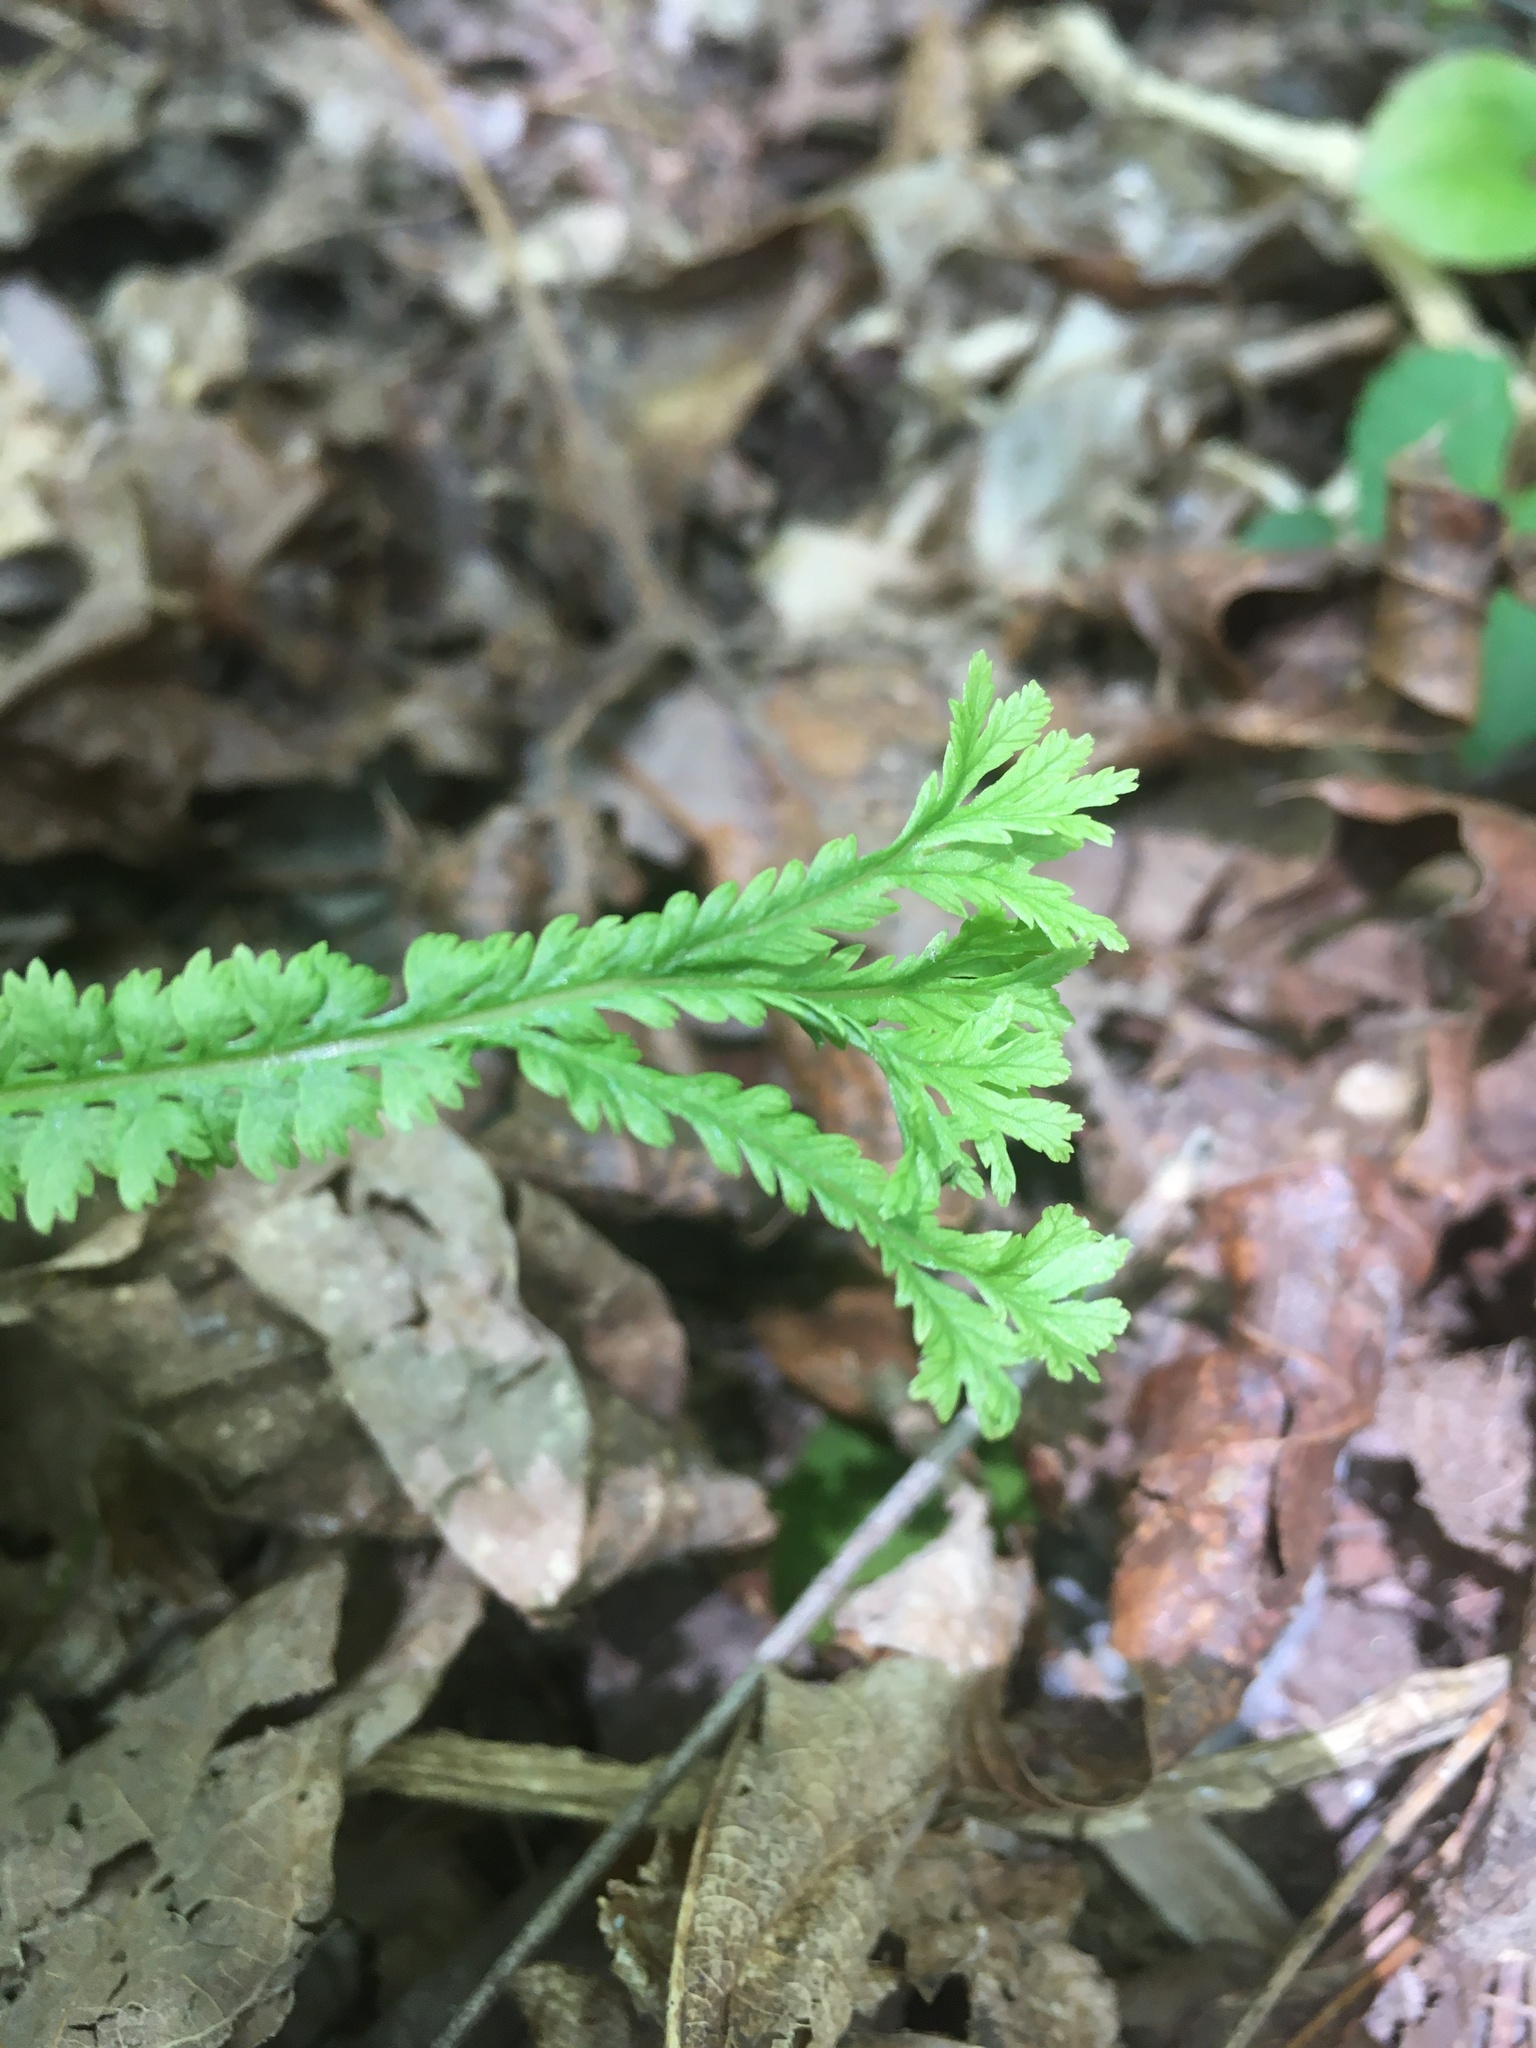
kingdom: Plantae
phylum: Tracheophyta
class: Polypodiopsida
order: Polypodiales
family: Aspleniaceae
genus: Asplenium
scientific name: Asplenium platyneuron
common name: Ebony spleenwort
